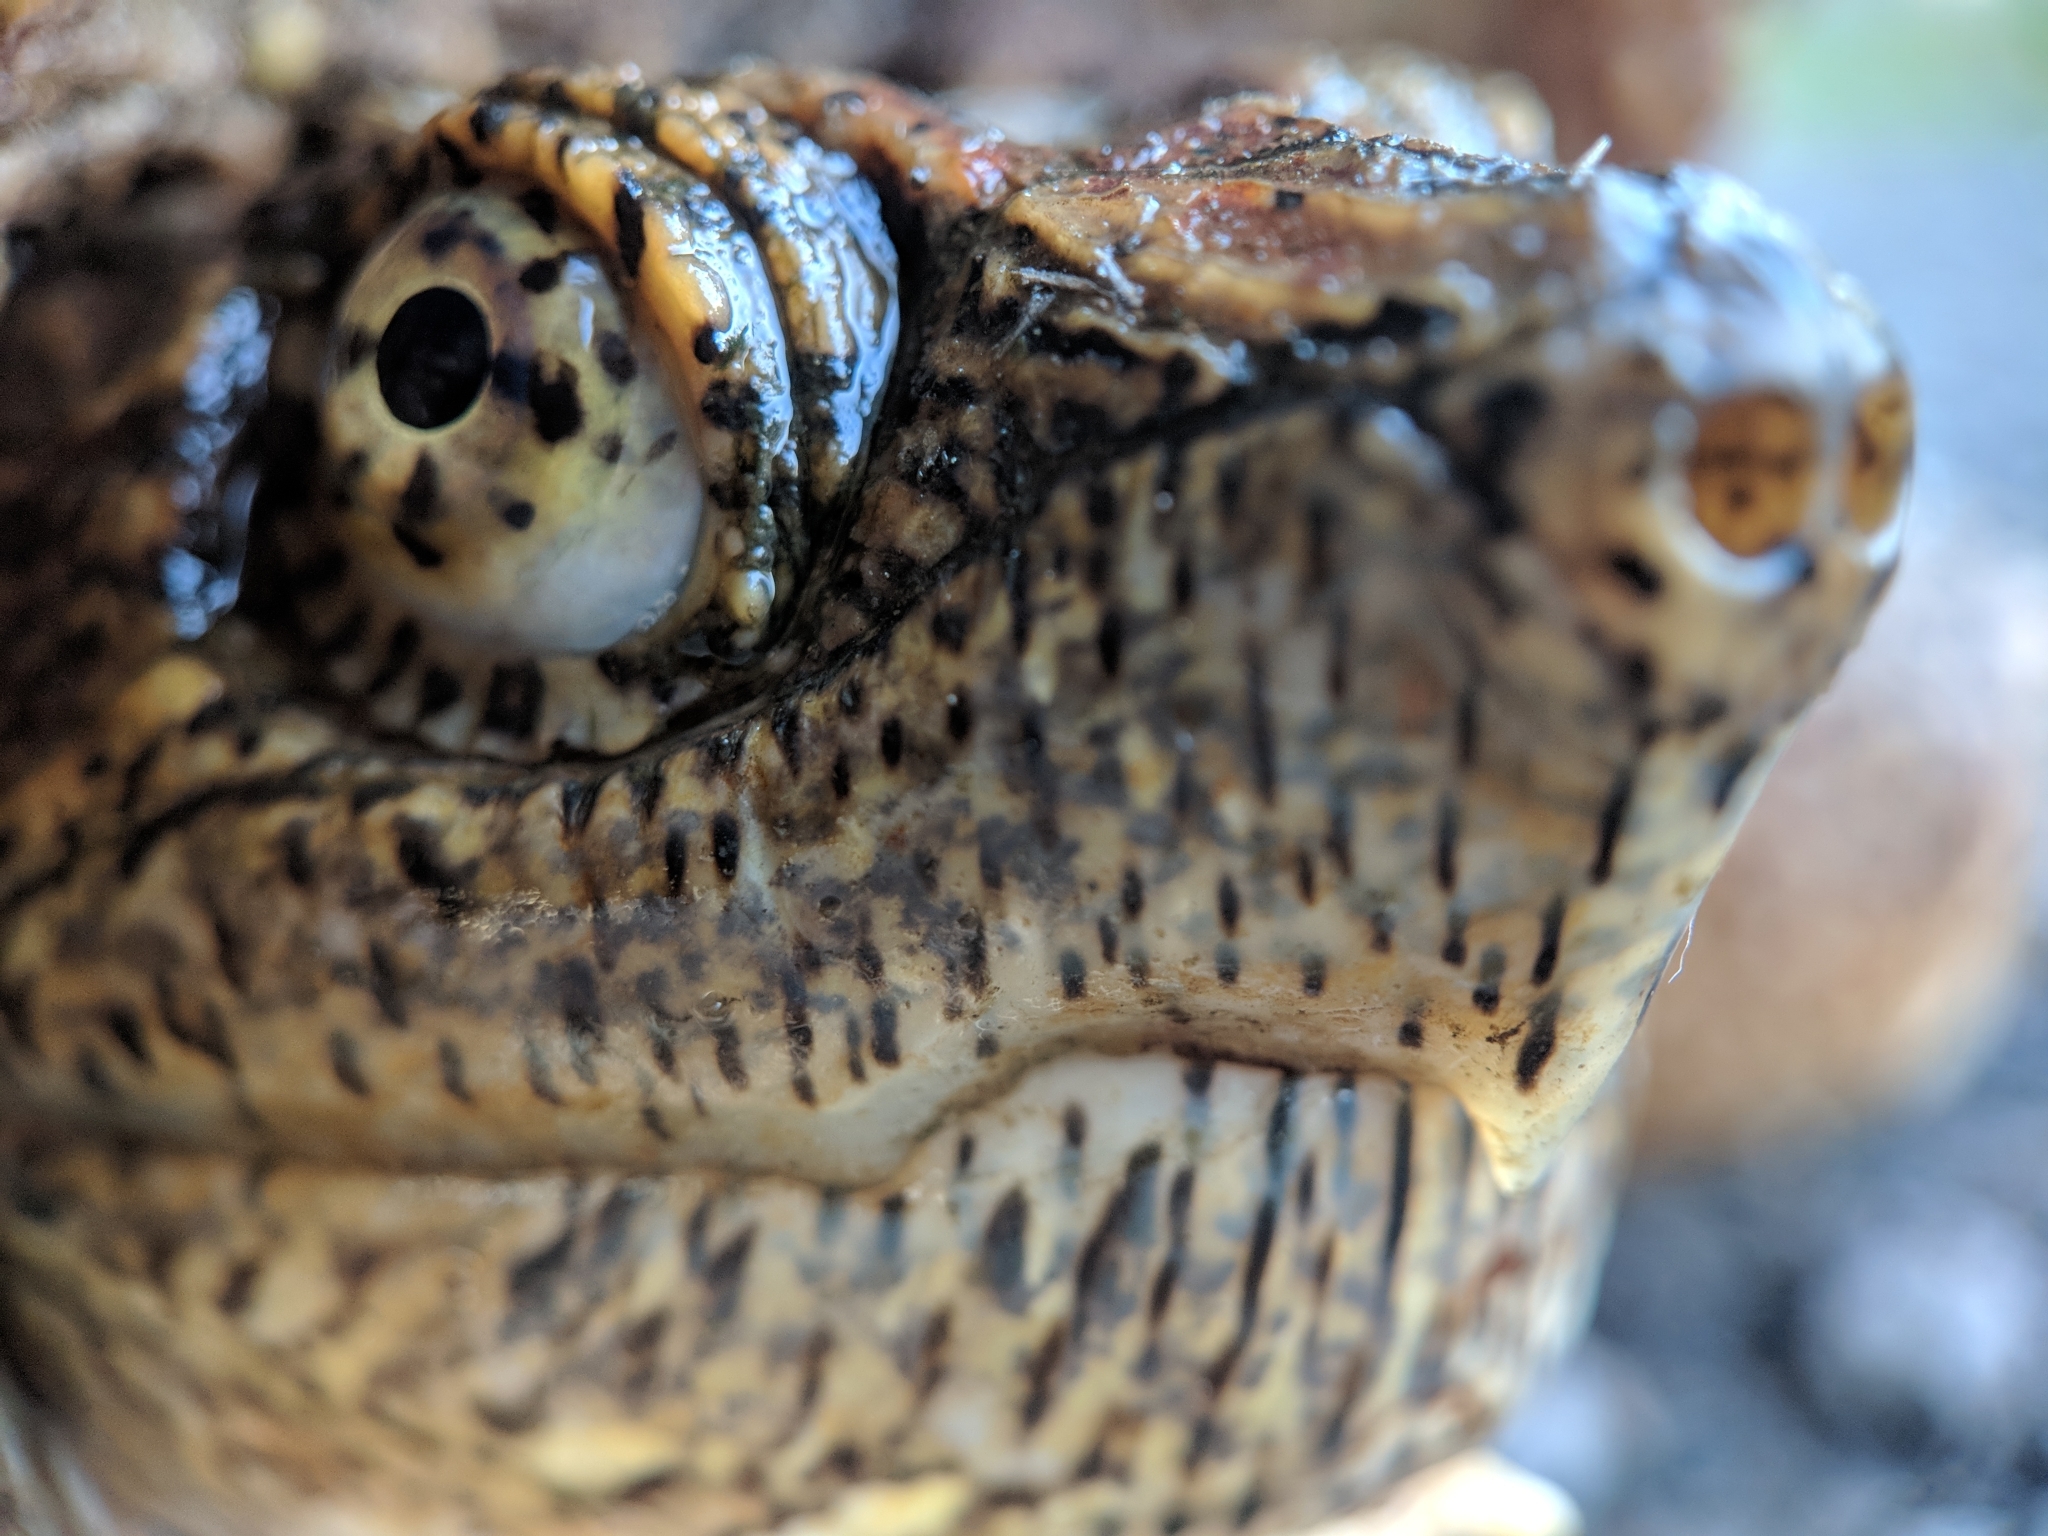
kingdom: Animalia
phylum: Chordata
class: Testudines
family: Chelydridae
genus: Chelydra
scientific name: Chelydra serpentina
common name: Common snapping turtle
